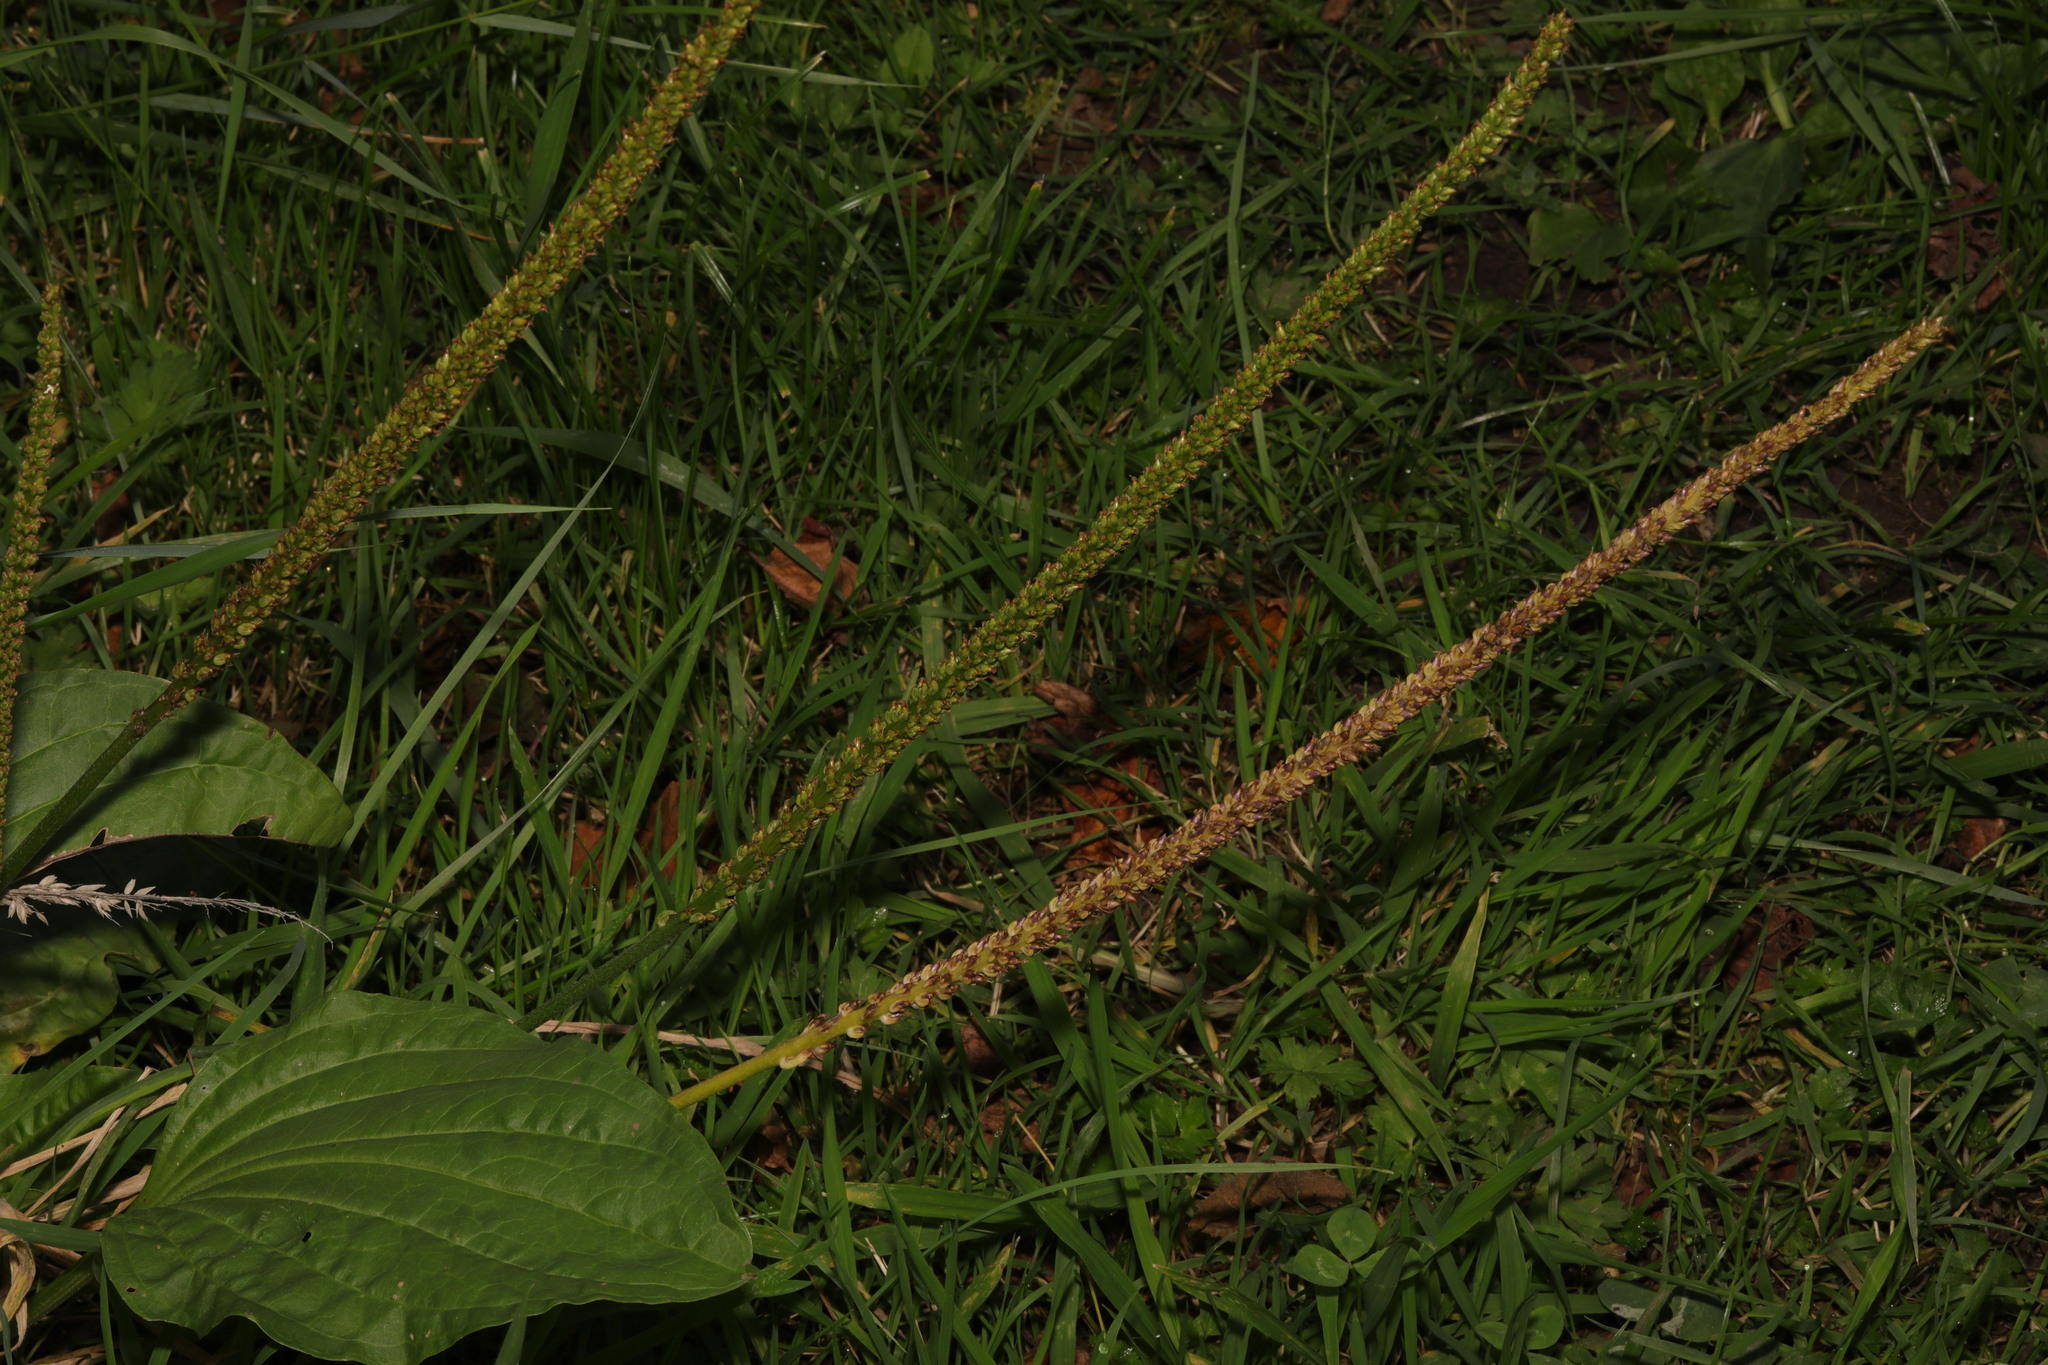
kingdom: Plantae
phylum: Tracheophyta
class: Magnoliopsida
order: Lamiales
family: Plantaginaceae
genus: Plantago
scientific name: Plantago major
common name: Common plantain
